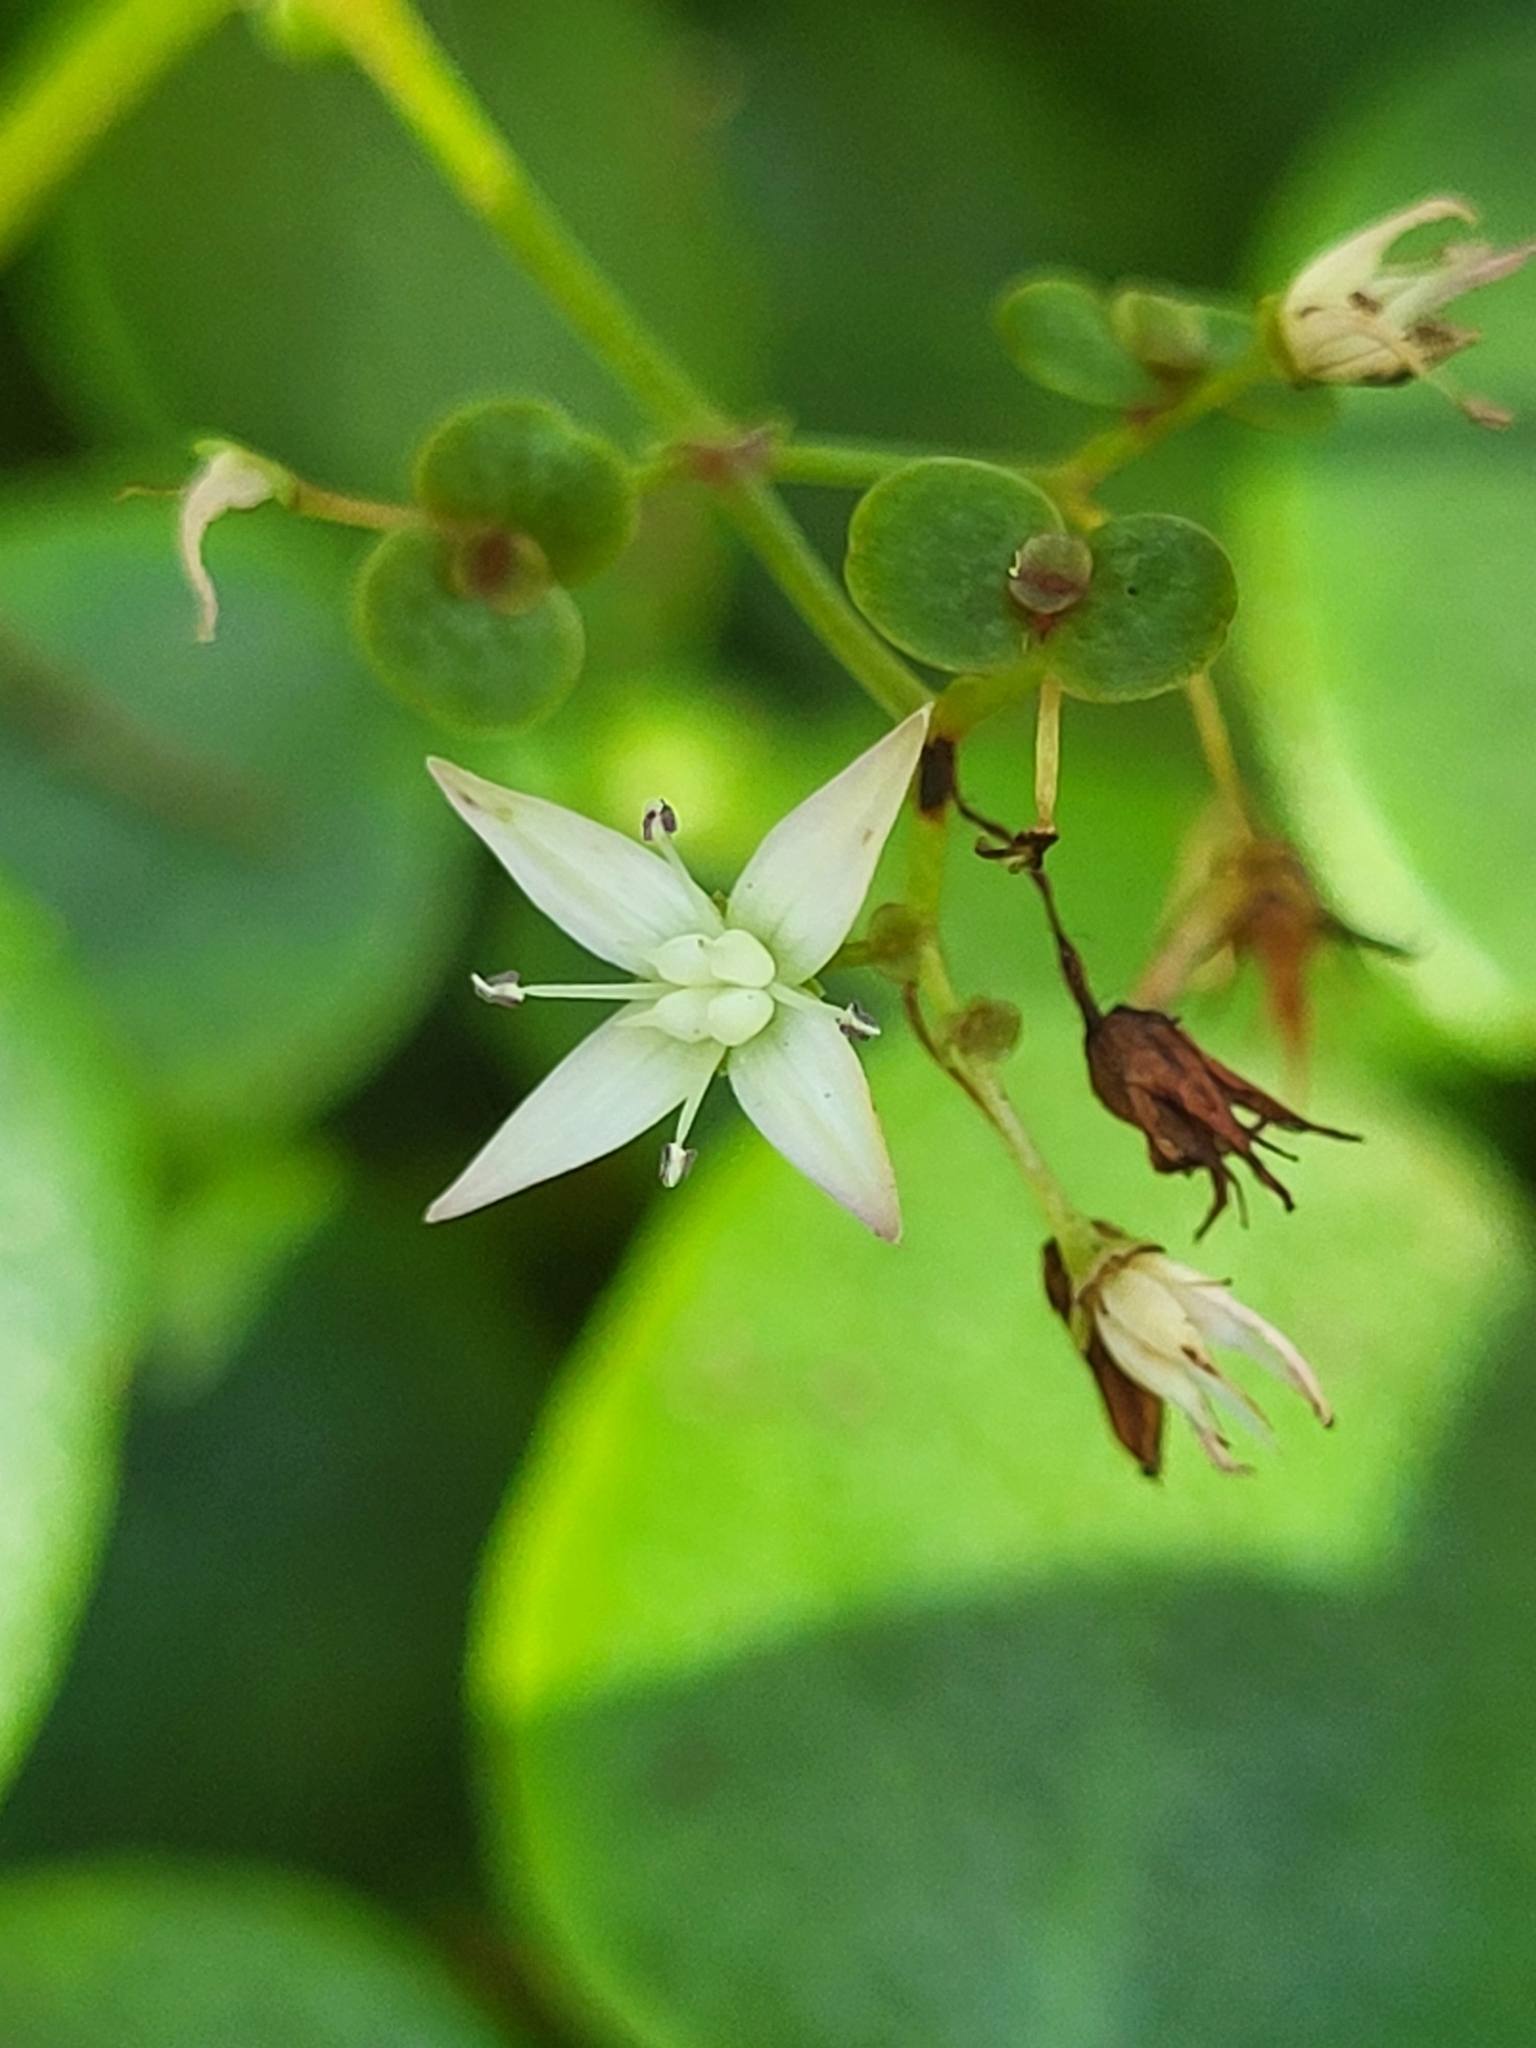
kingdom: Plantae
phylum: Tracheophyta
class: Magnoliopsida
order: Saxifragales
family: Crassulaceae
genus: Crassula
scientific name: Crassula multicava
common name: Cape province pygmyweed
